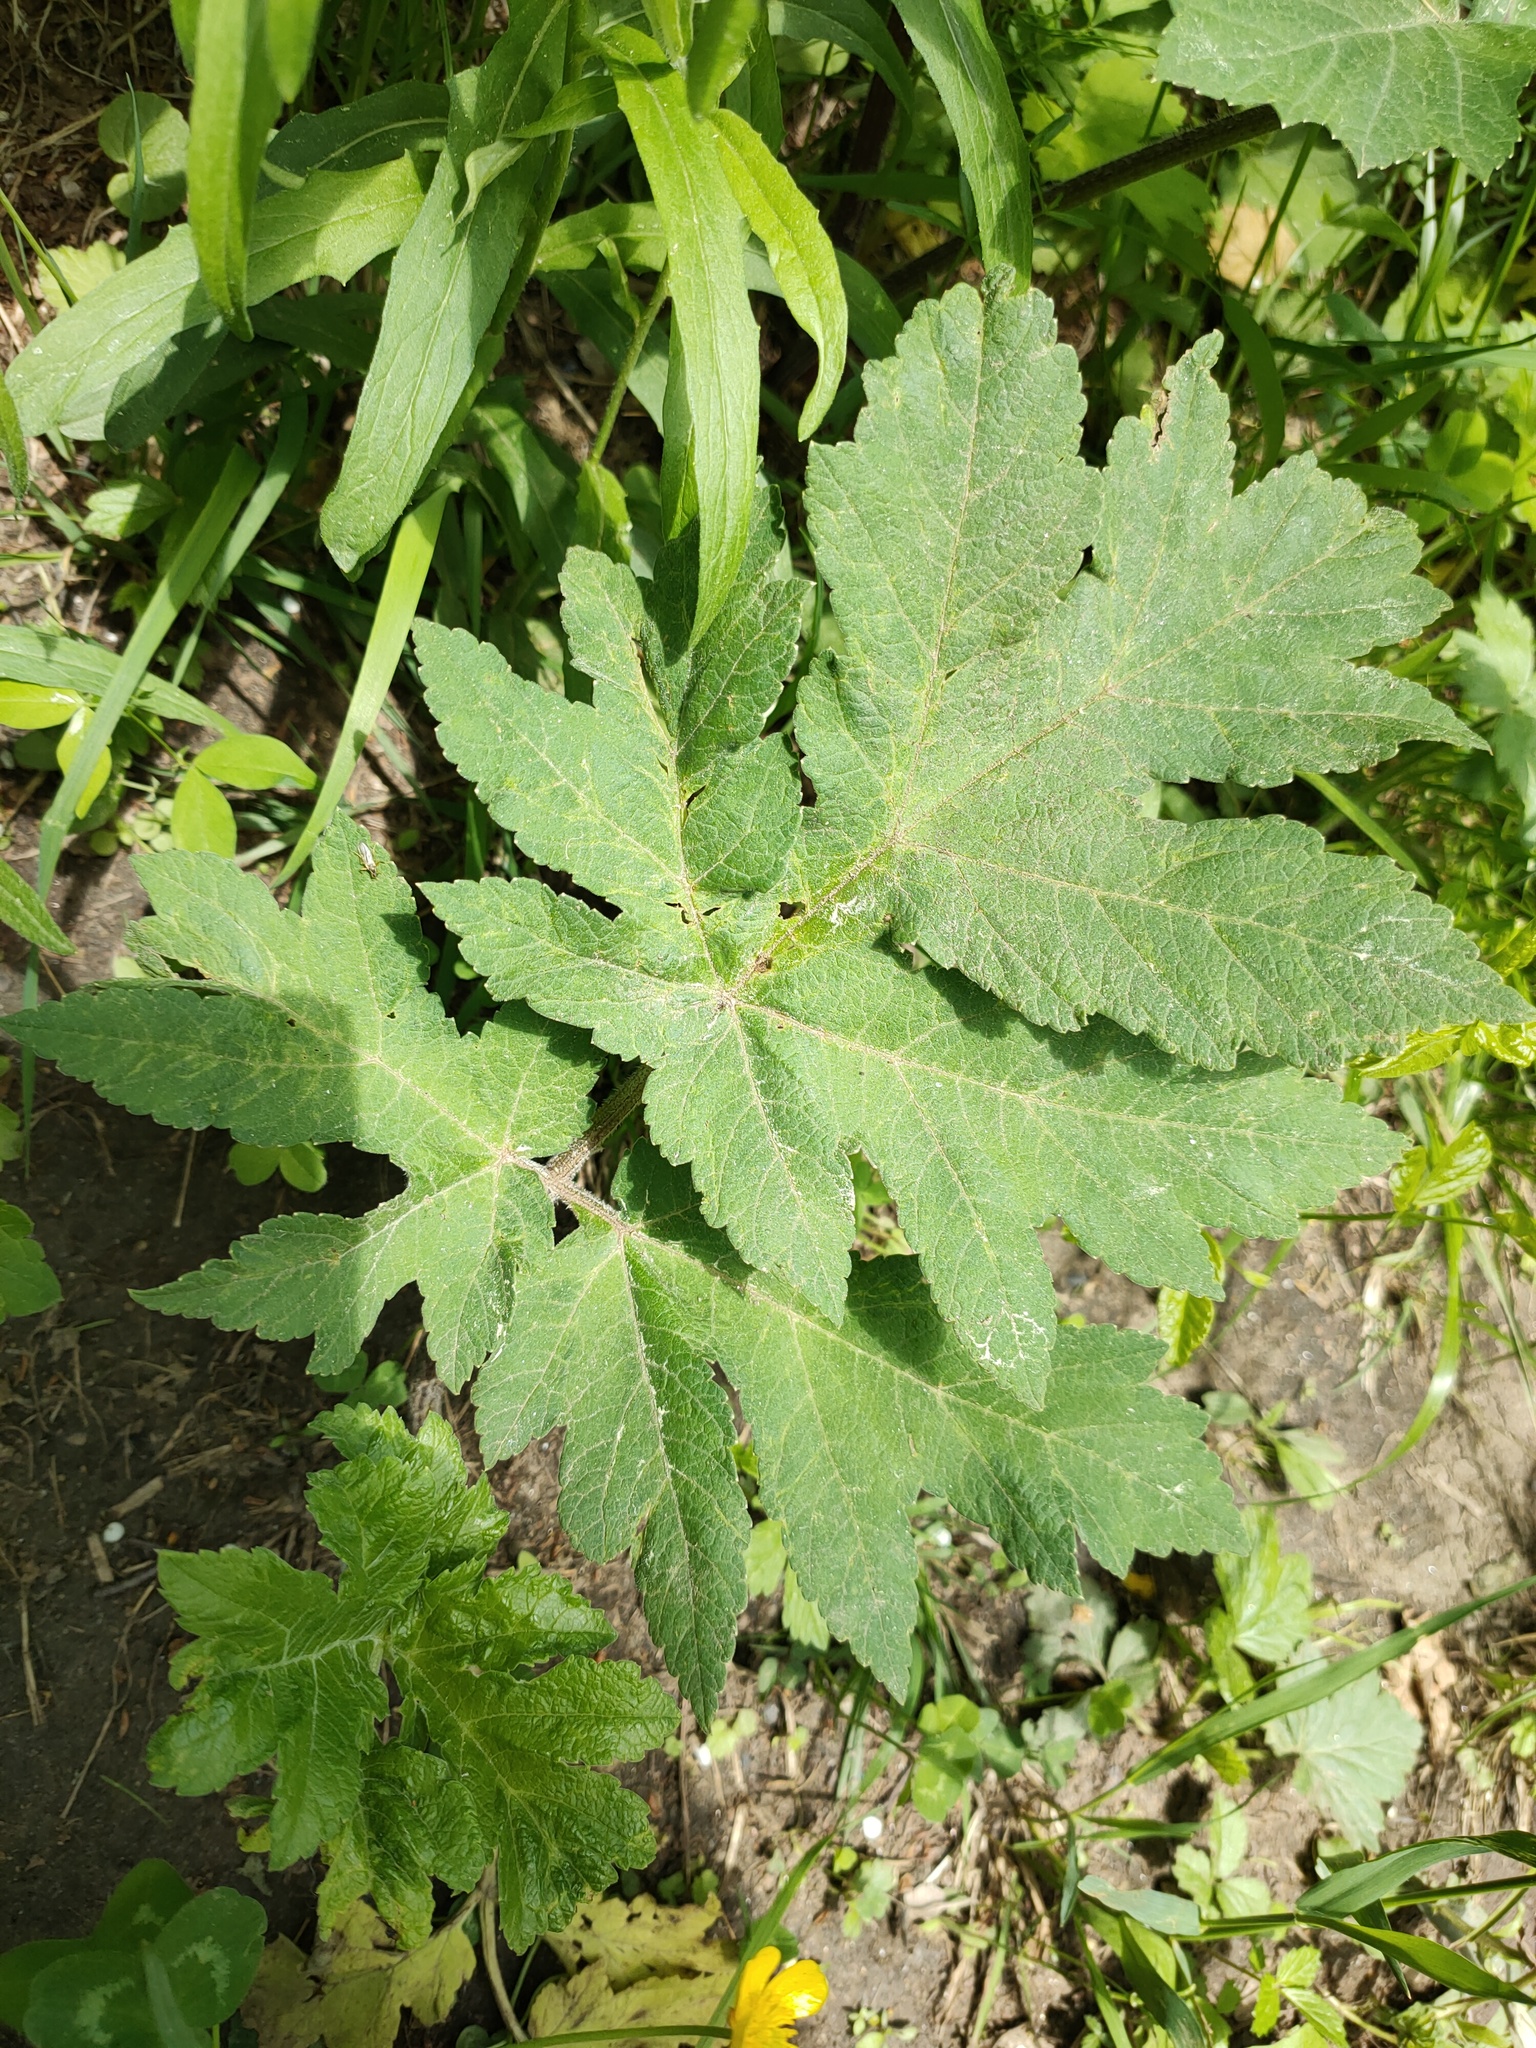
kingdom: Plantae
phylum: Tracheophyta
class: Magnoliopsida
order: Apiales
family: Apiaceae
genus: Heracleum
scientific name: Heracleum dissectum
